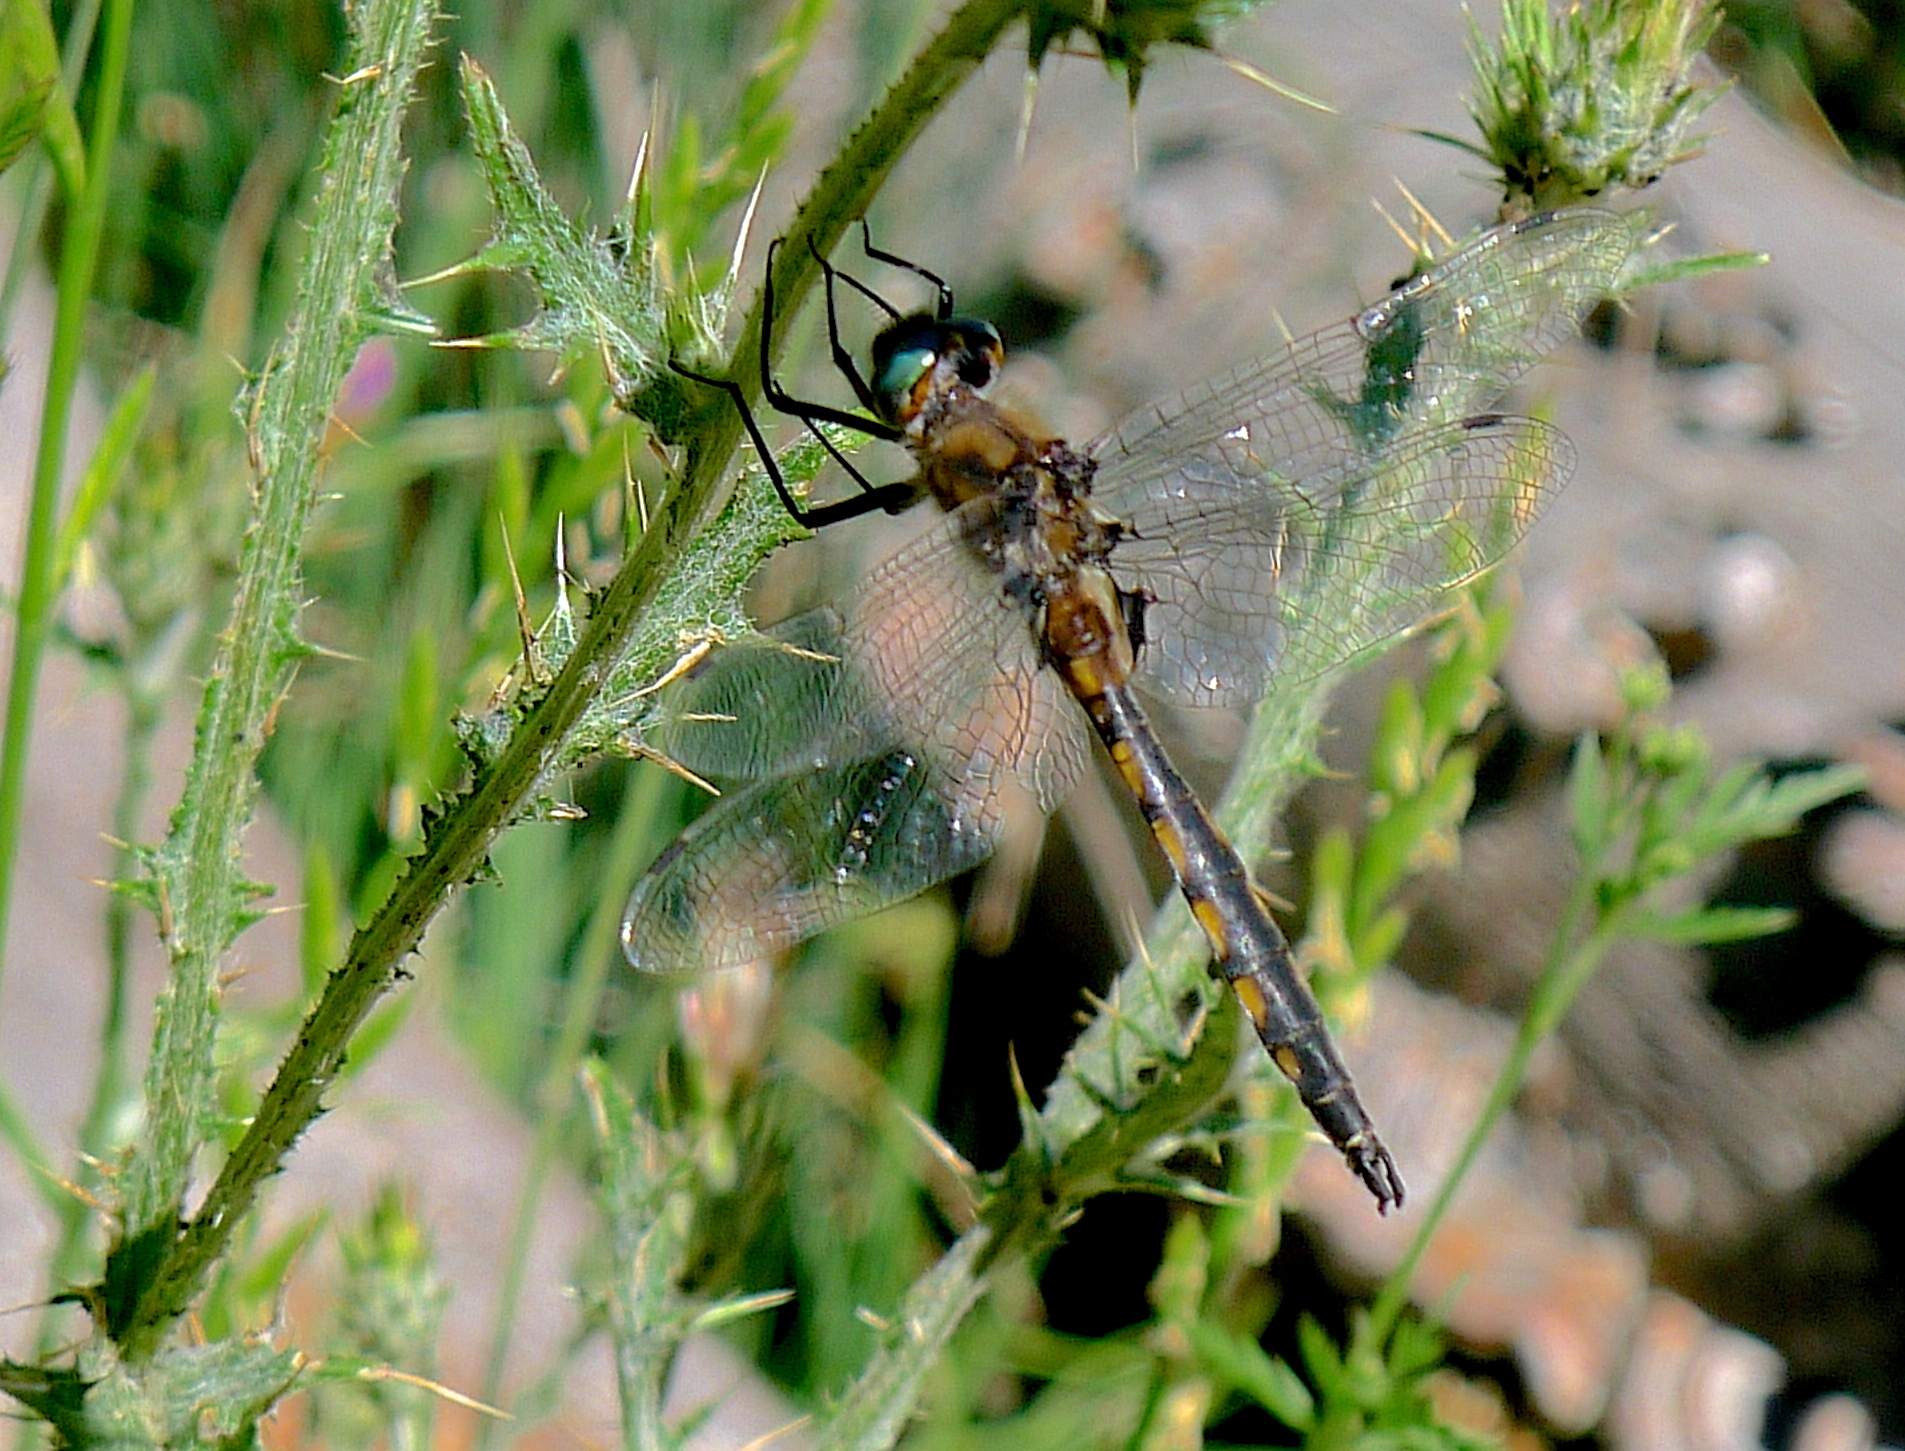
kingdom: Animalia
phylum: Arthropoda
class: Insecta
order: Odonata
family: Corduliidae
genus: Epitheca
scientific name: Epitheca canis
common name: Beaverpond baskettail
